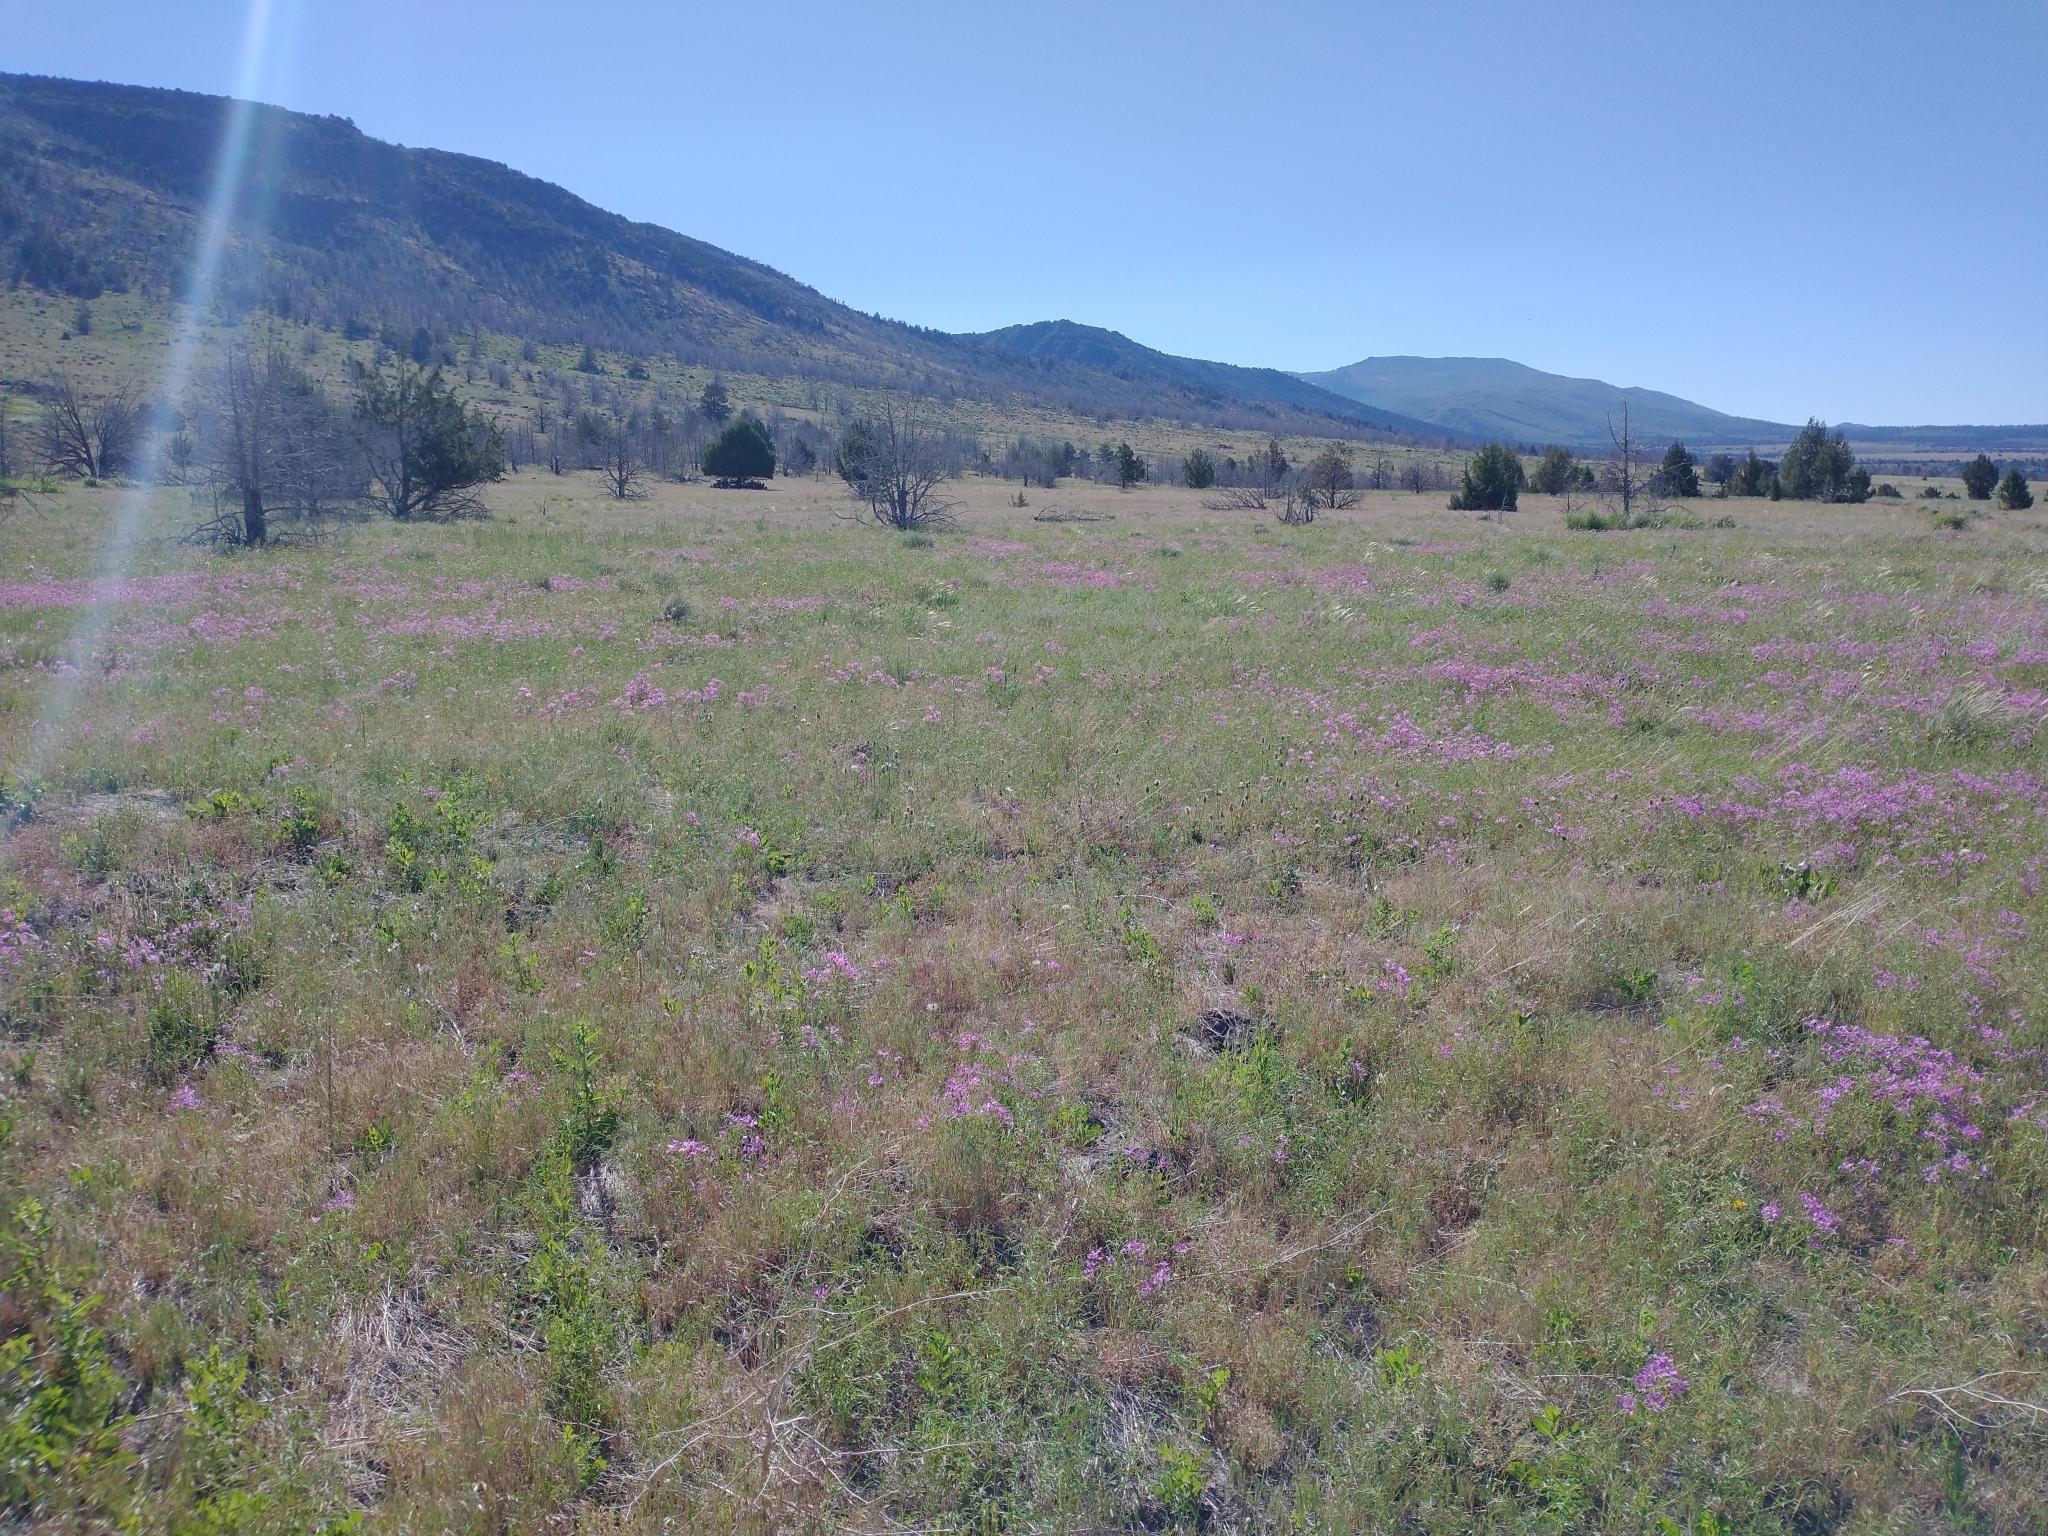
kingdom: Plantae
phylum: Tracheophyta
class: Magnoliopsida
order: Myrtales
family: Onagraceae
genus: Clarkia
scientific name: Clarkia pulchella
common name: Deer horn
